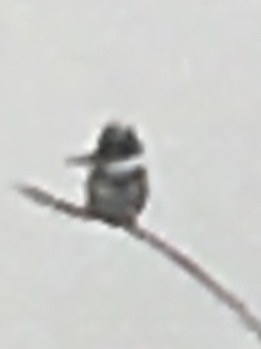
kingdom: Animalia
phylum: Chordata
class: Aves
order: Coraciiformes
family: Alcedinidae
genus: Megaceryle
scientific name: Megaceryle alcyon
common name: Belted kingfisher
